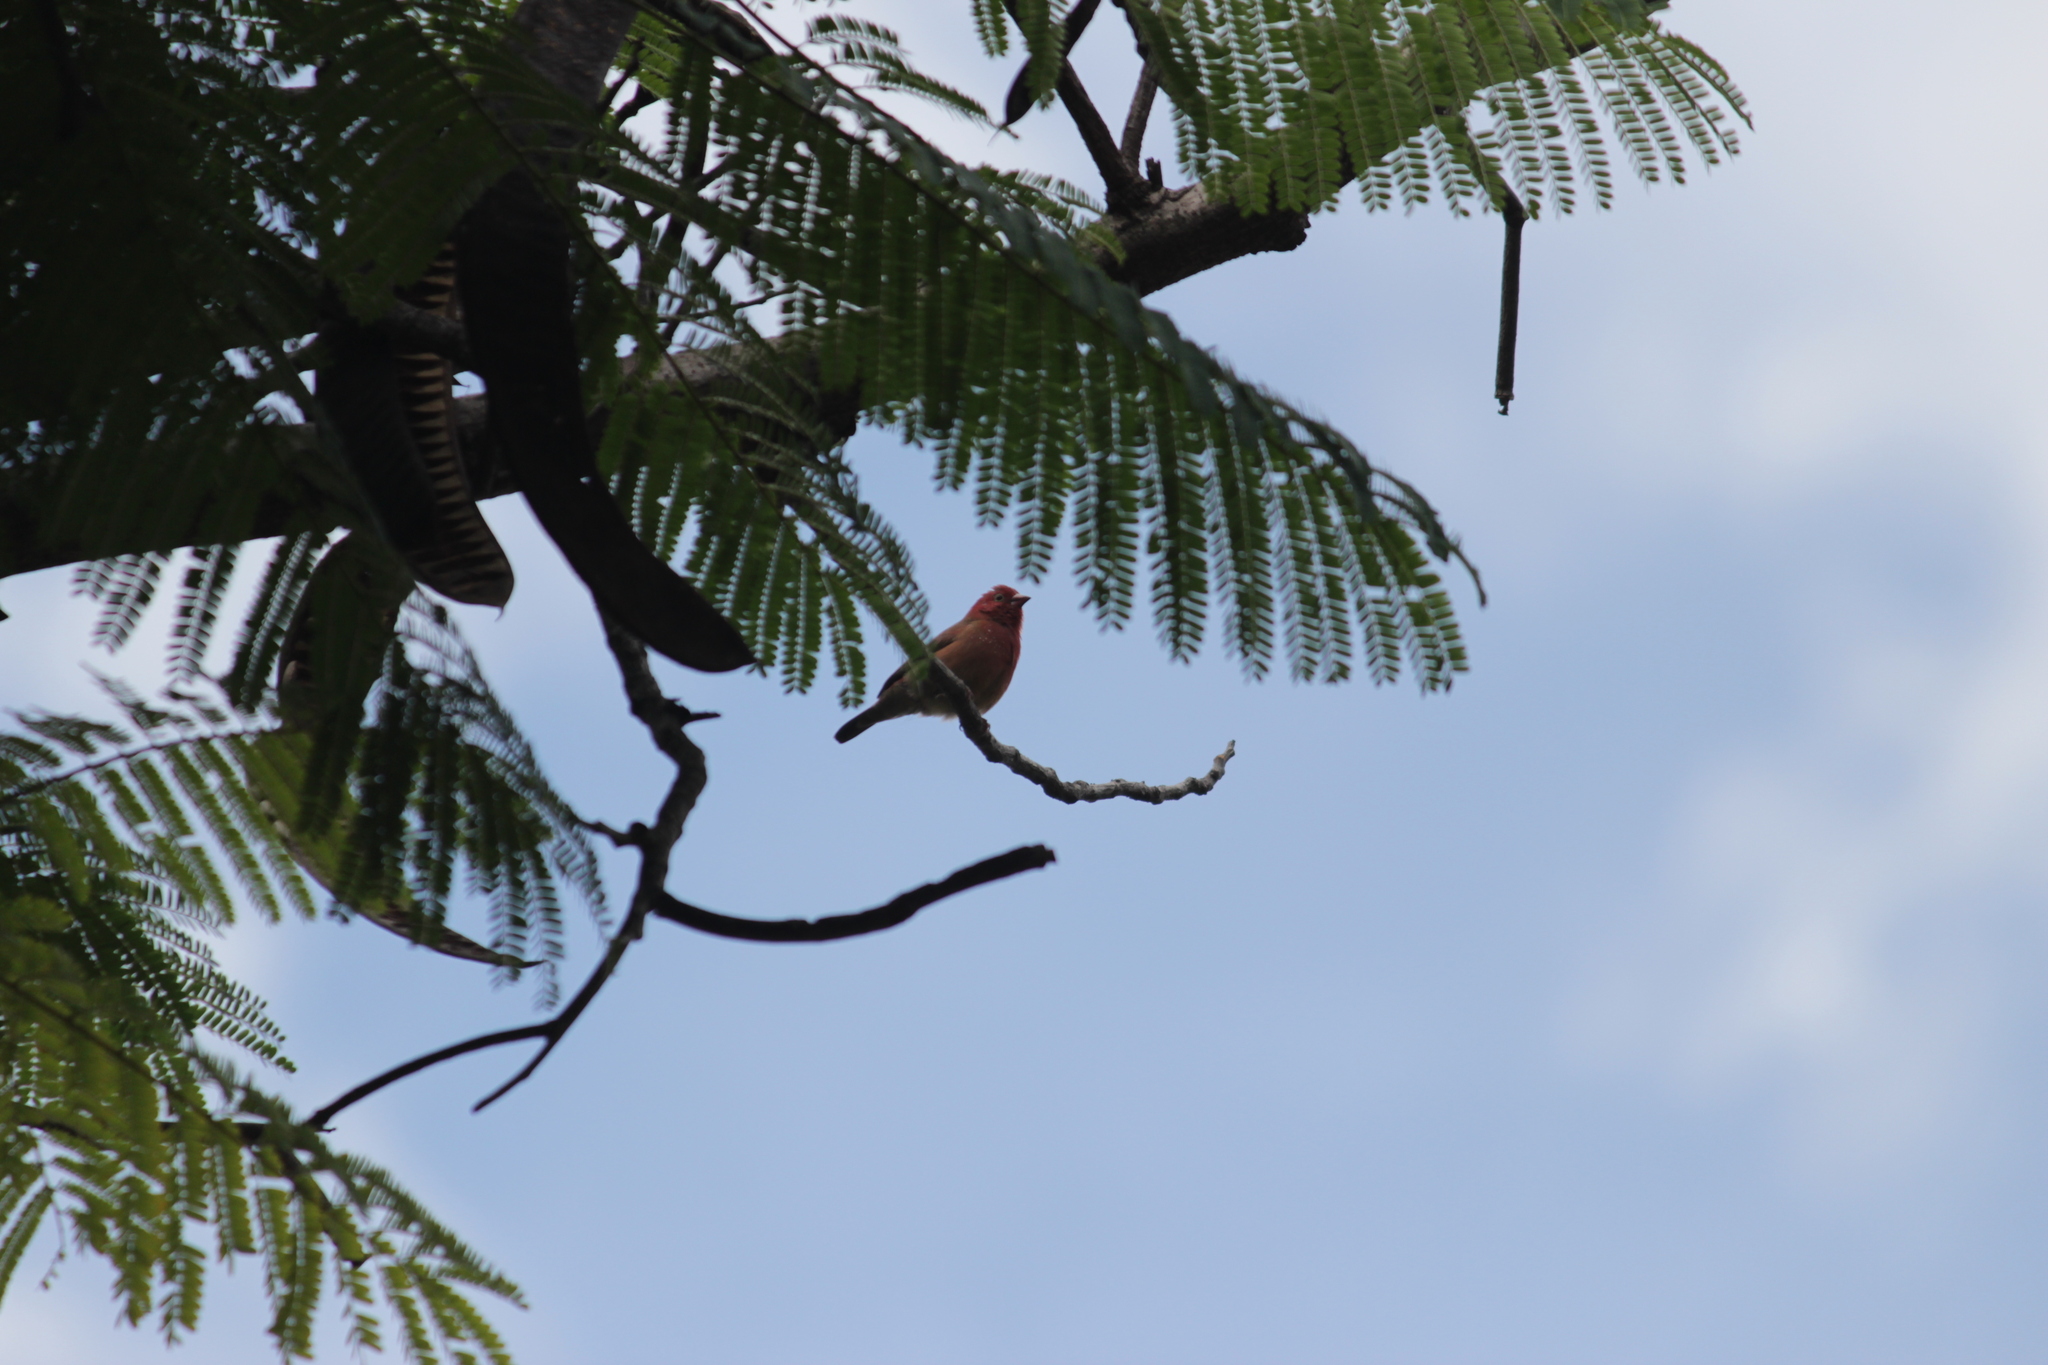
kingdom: Animalia
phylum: Chordata
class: Aves
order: Passeriformes
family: Estrildidae
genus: Lagonosticta
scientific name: Lagonosticta senegala
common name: Red-billed firefinch
